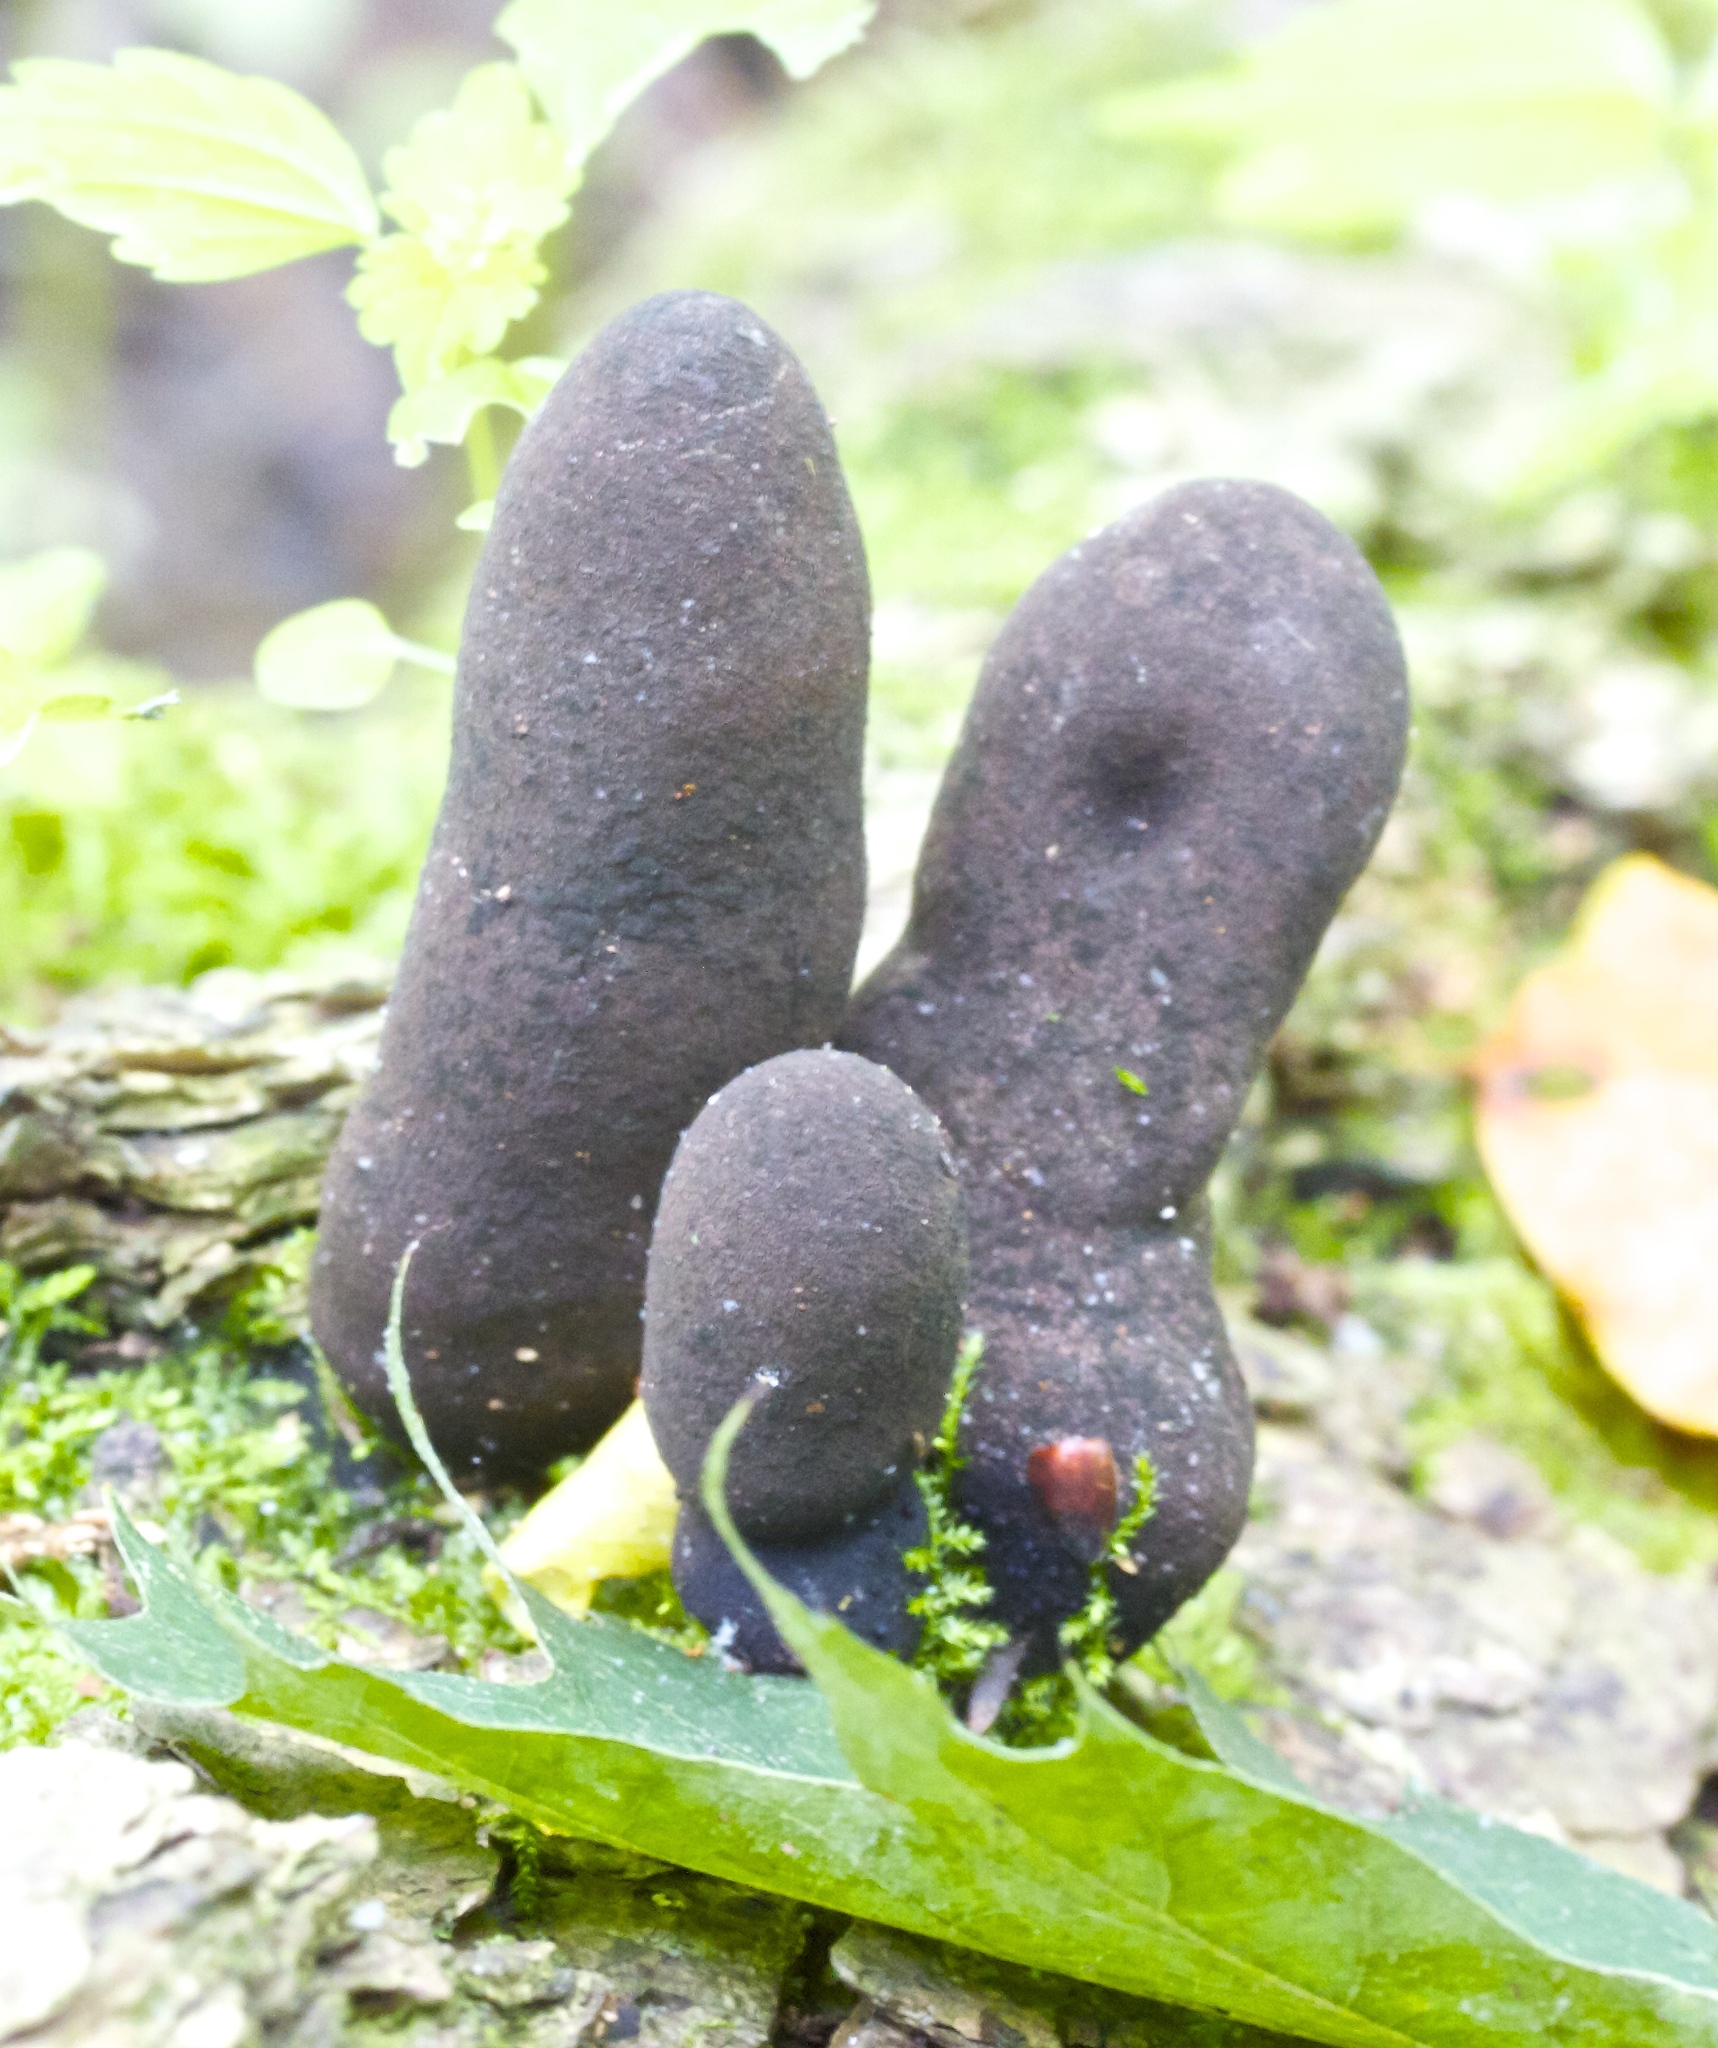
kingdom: Fungi
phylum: Ascomycota
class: Sordariomycetes
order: Xylariales
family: Xylariaceae
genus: Xylaria
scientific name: Xylaria polymorpha
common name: Dead man's fingers
